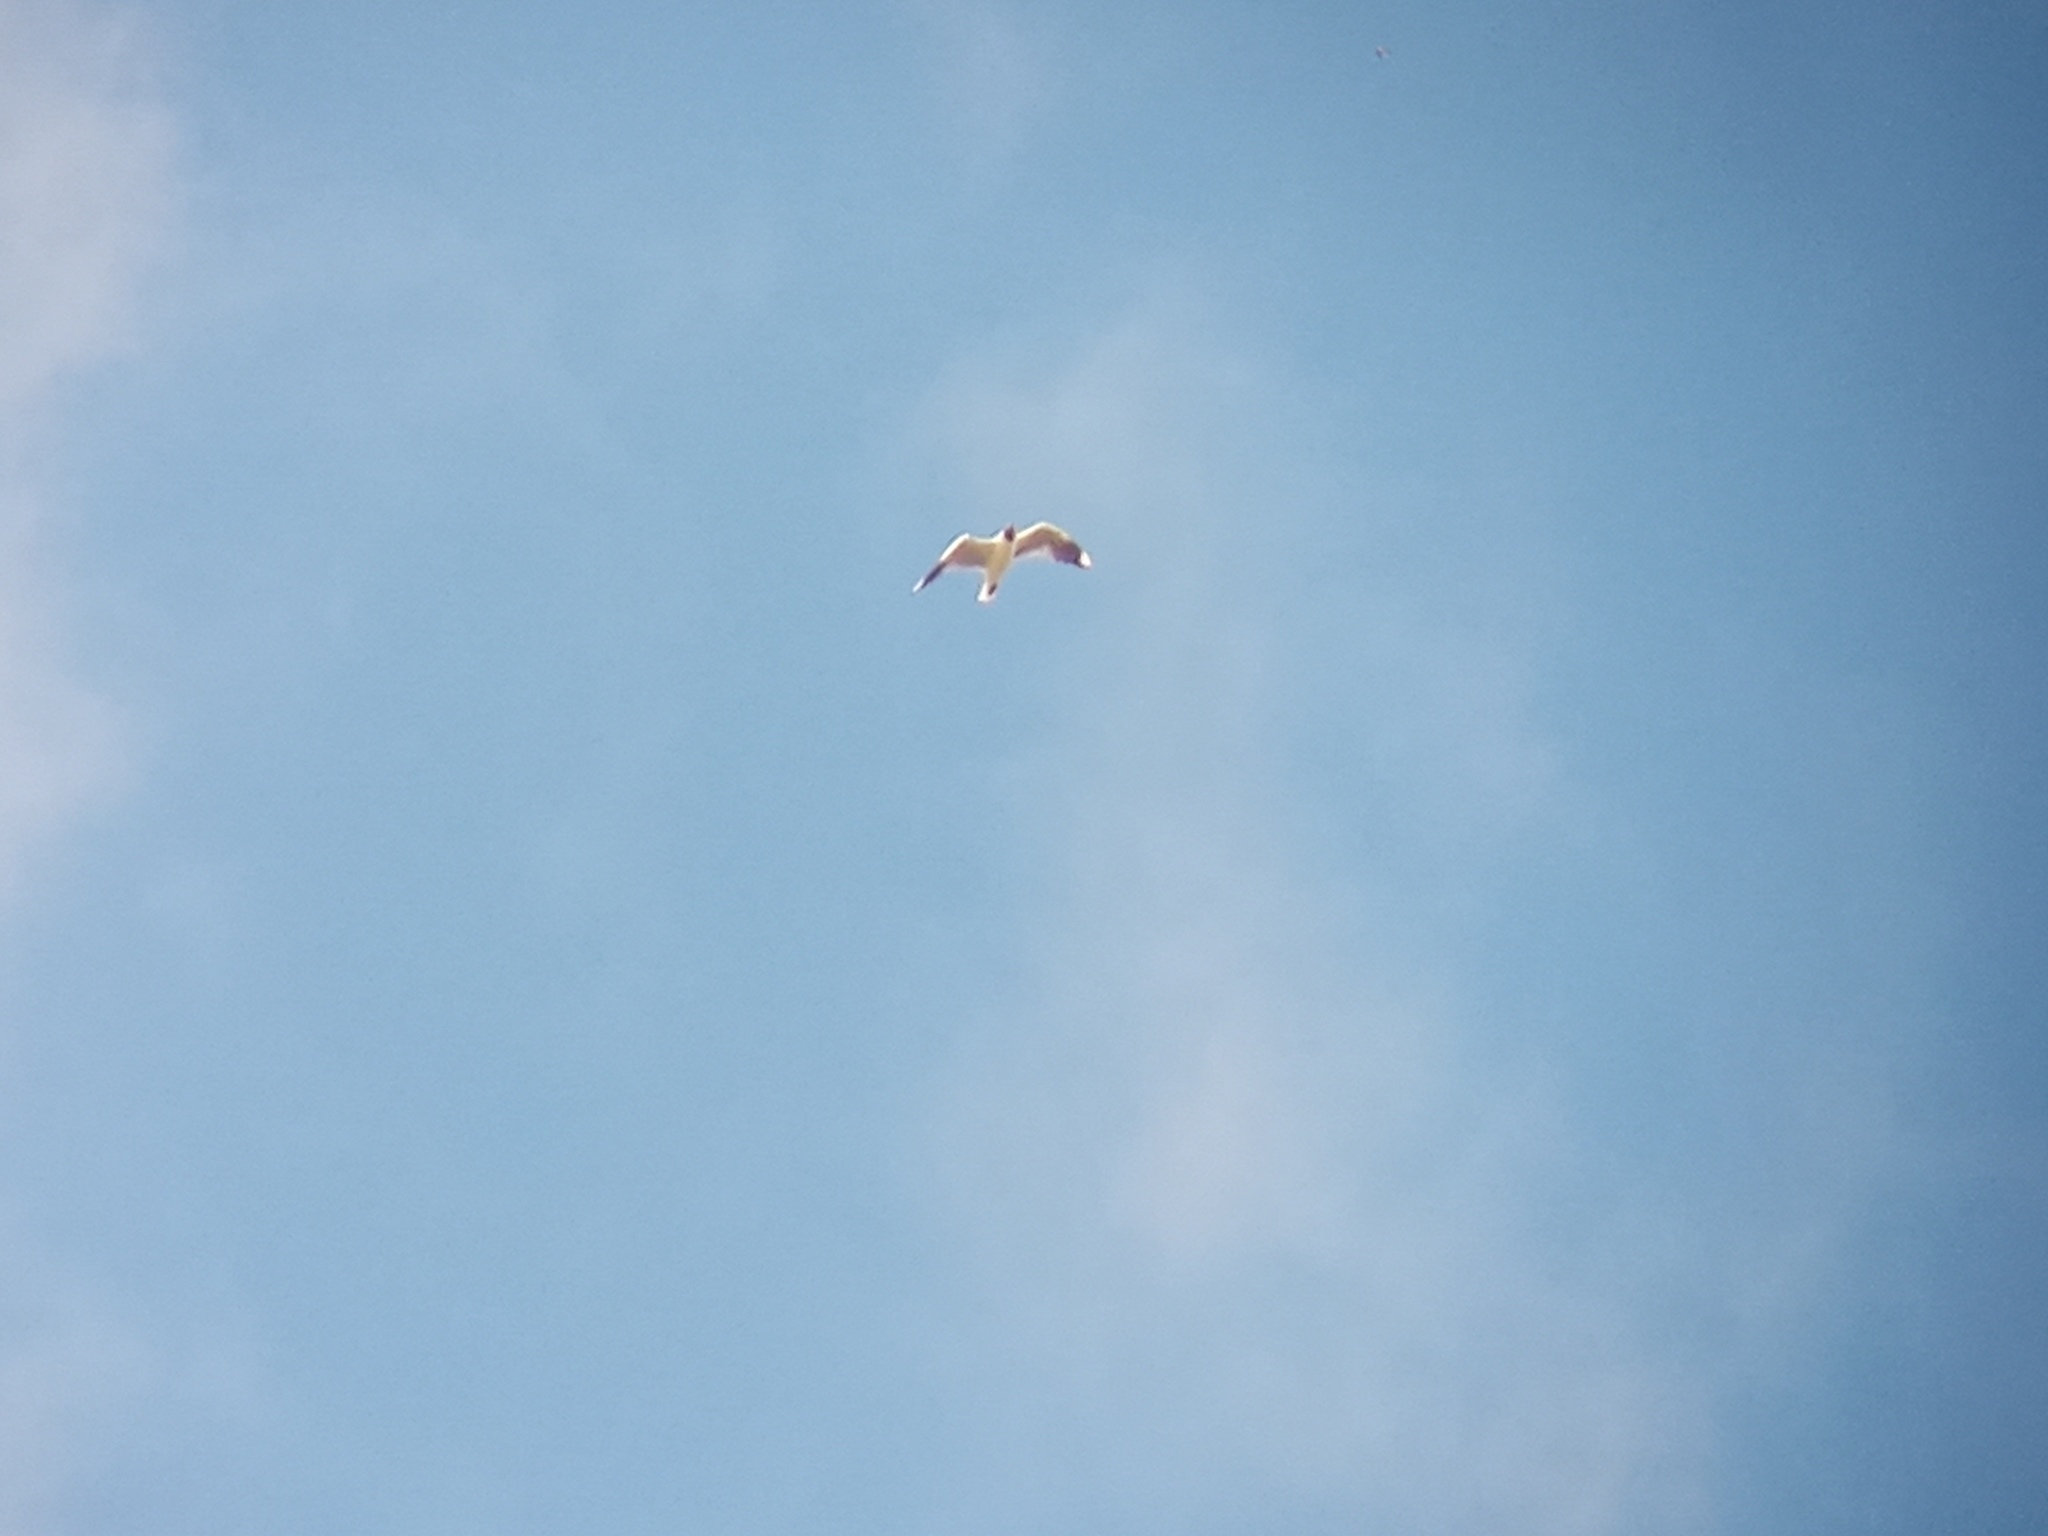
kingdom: Animalia
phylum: Chordata
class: Aves
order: Charadriiformes
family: Laridae
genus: Chroicocephalus
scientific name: Chroicocephalus maculipennis
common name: Brown-hooded gull
